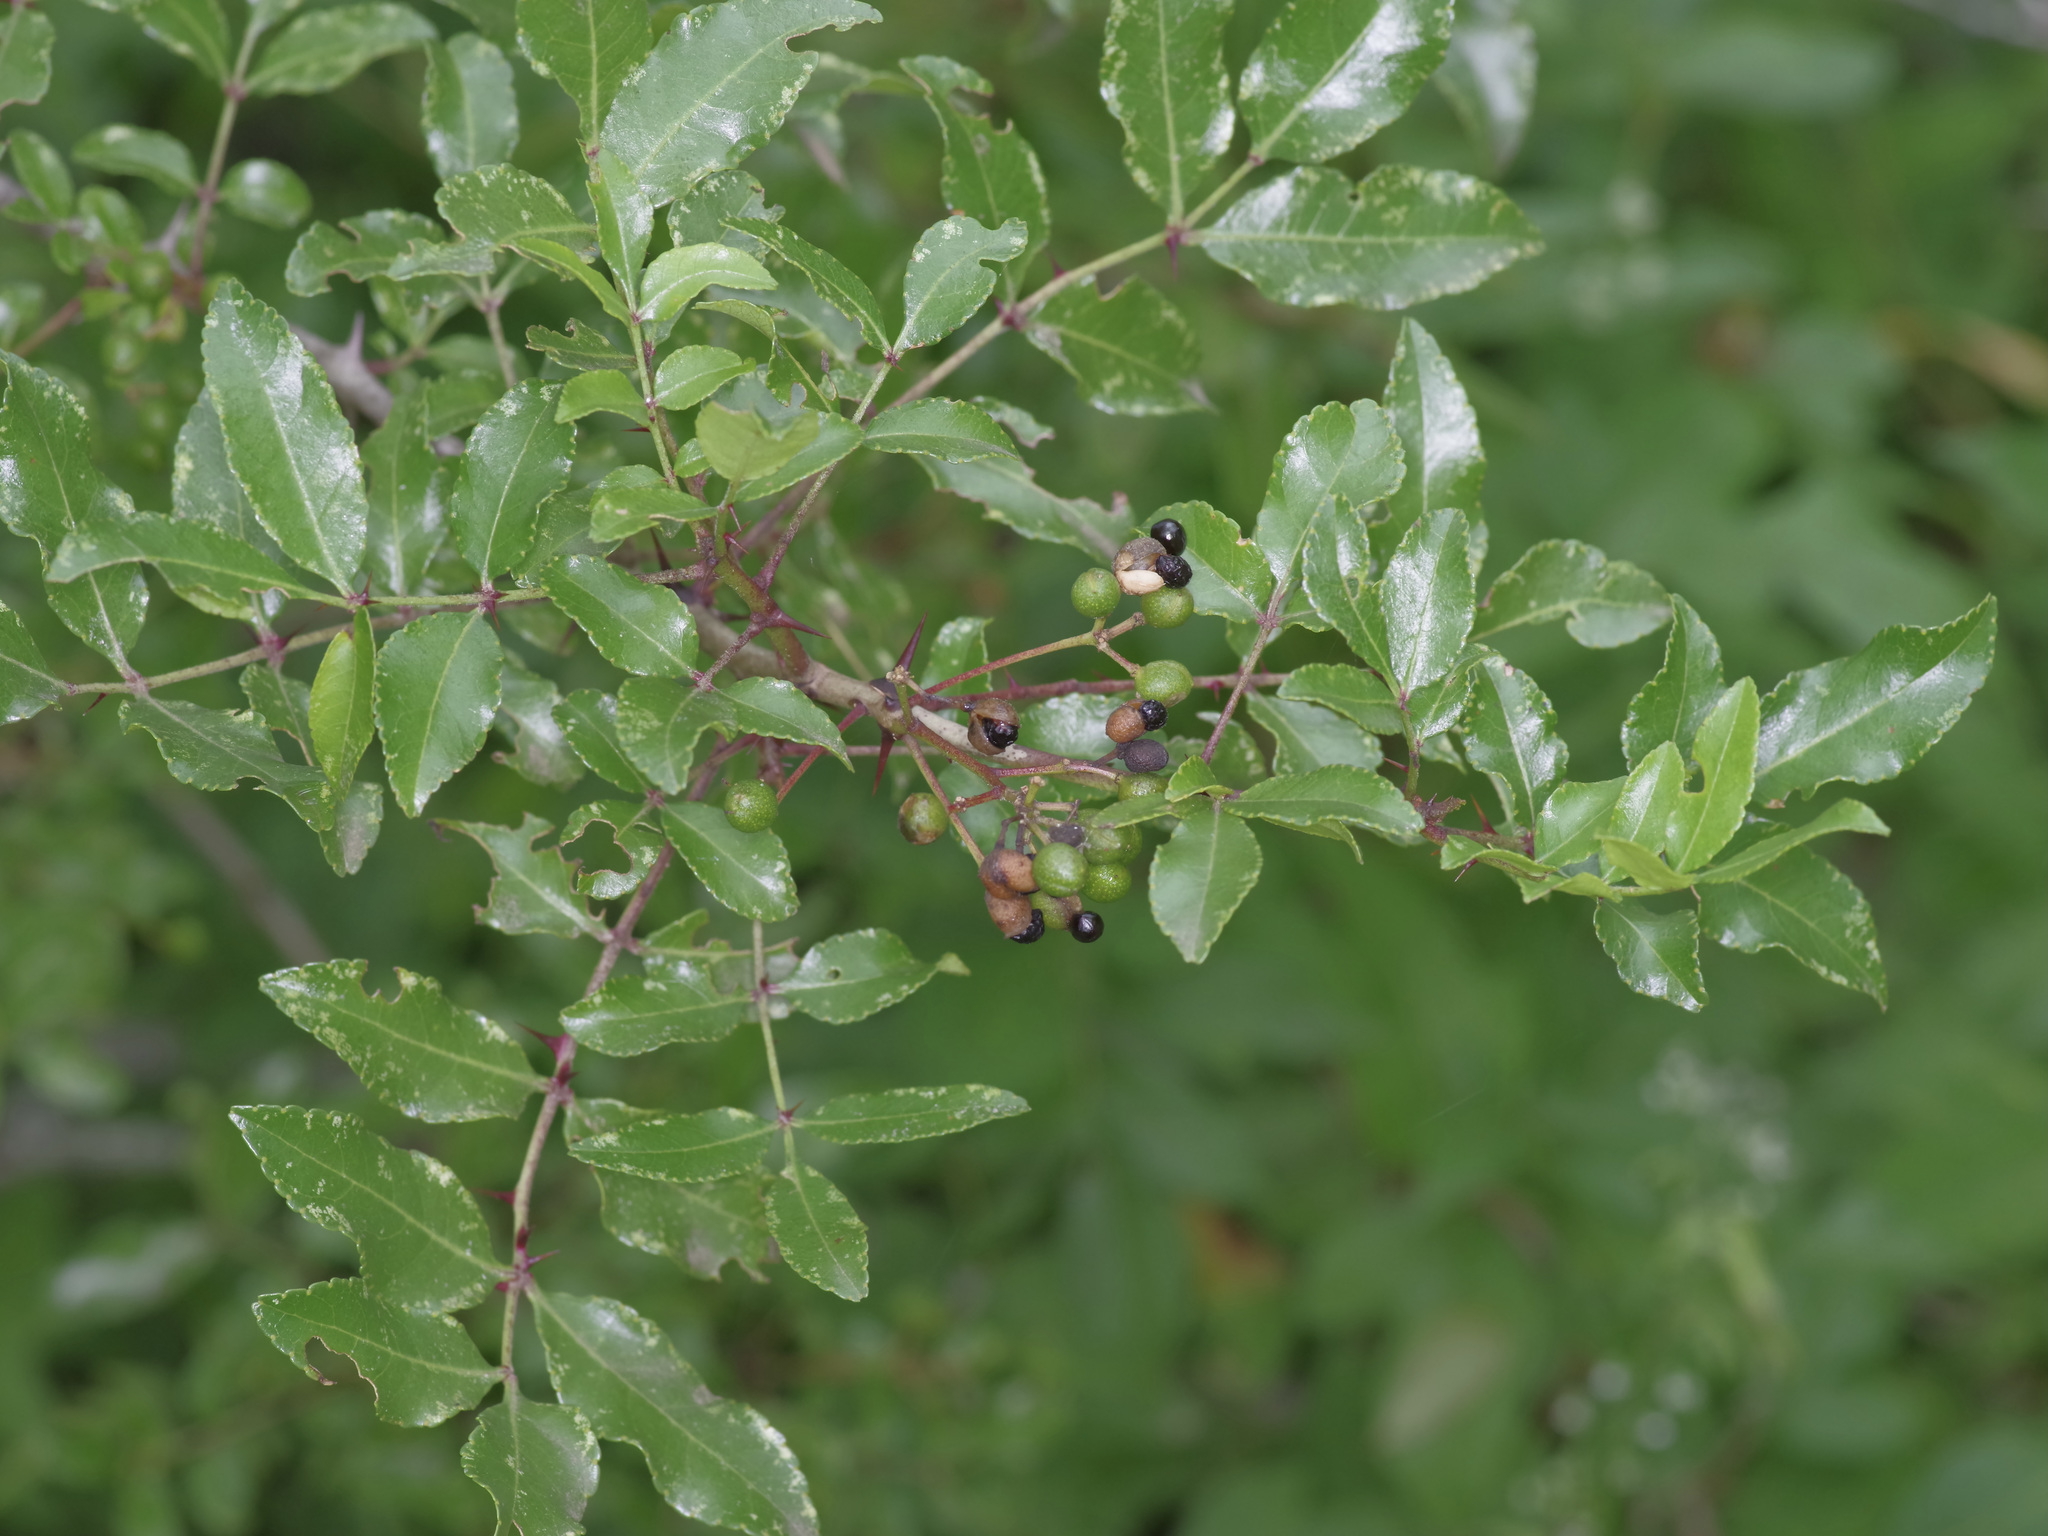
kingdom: Plantae
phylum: Tracheophyta
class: Magnoliopsida
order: Sapindales
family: Rutaceae
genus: Zanthoxylum
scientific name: Zanthoxylum clava-herculis
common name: Hercules'-club
